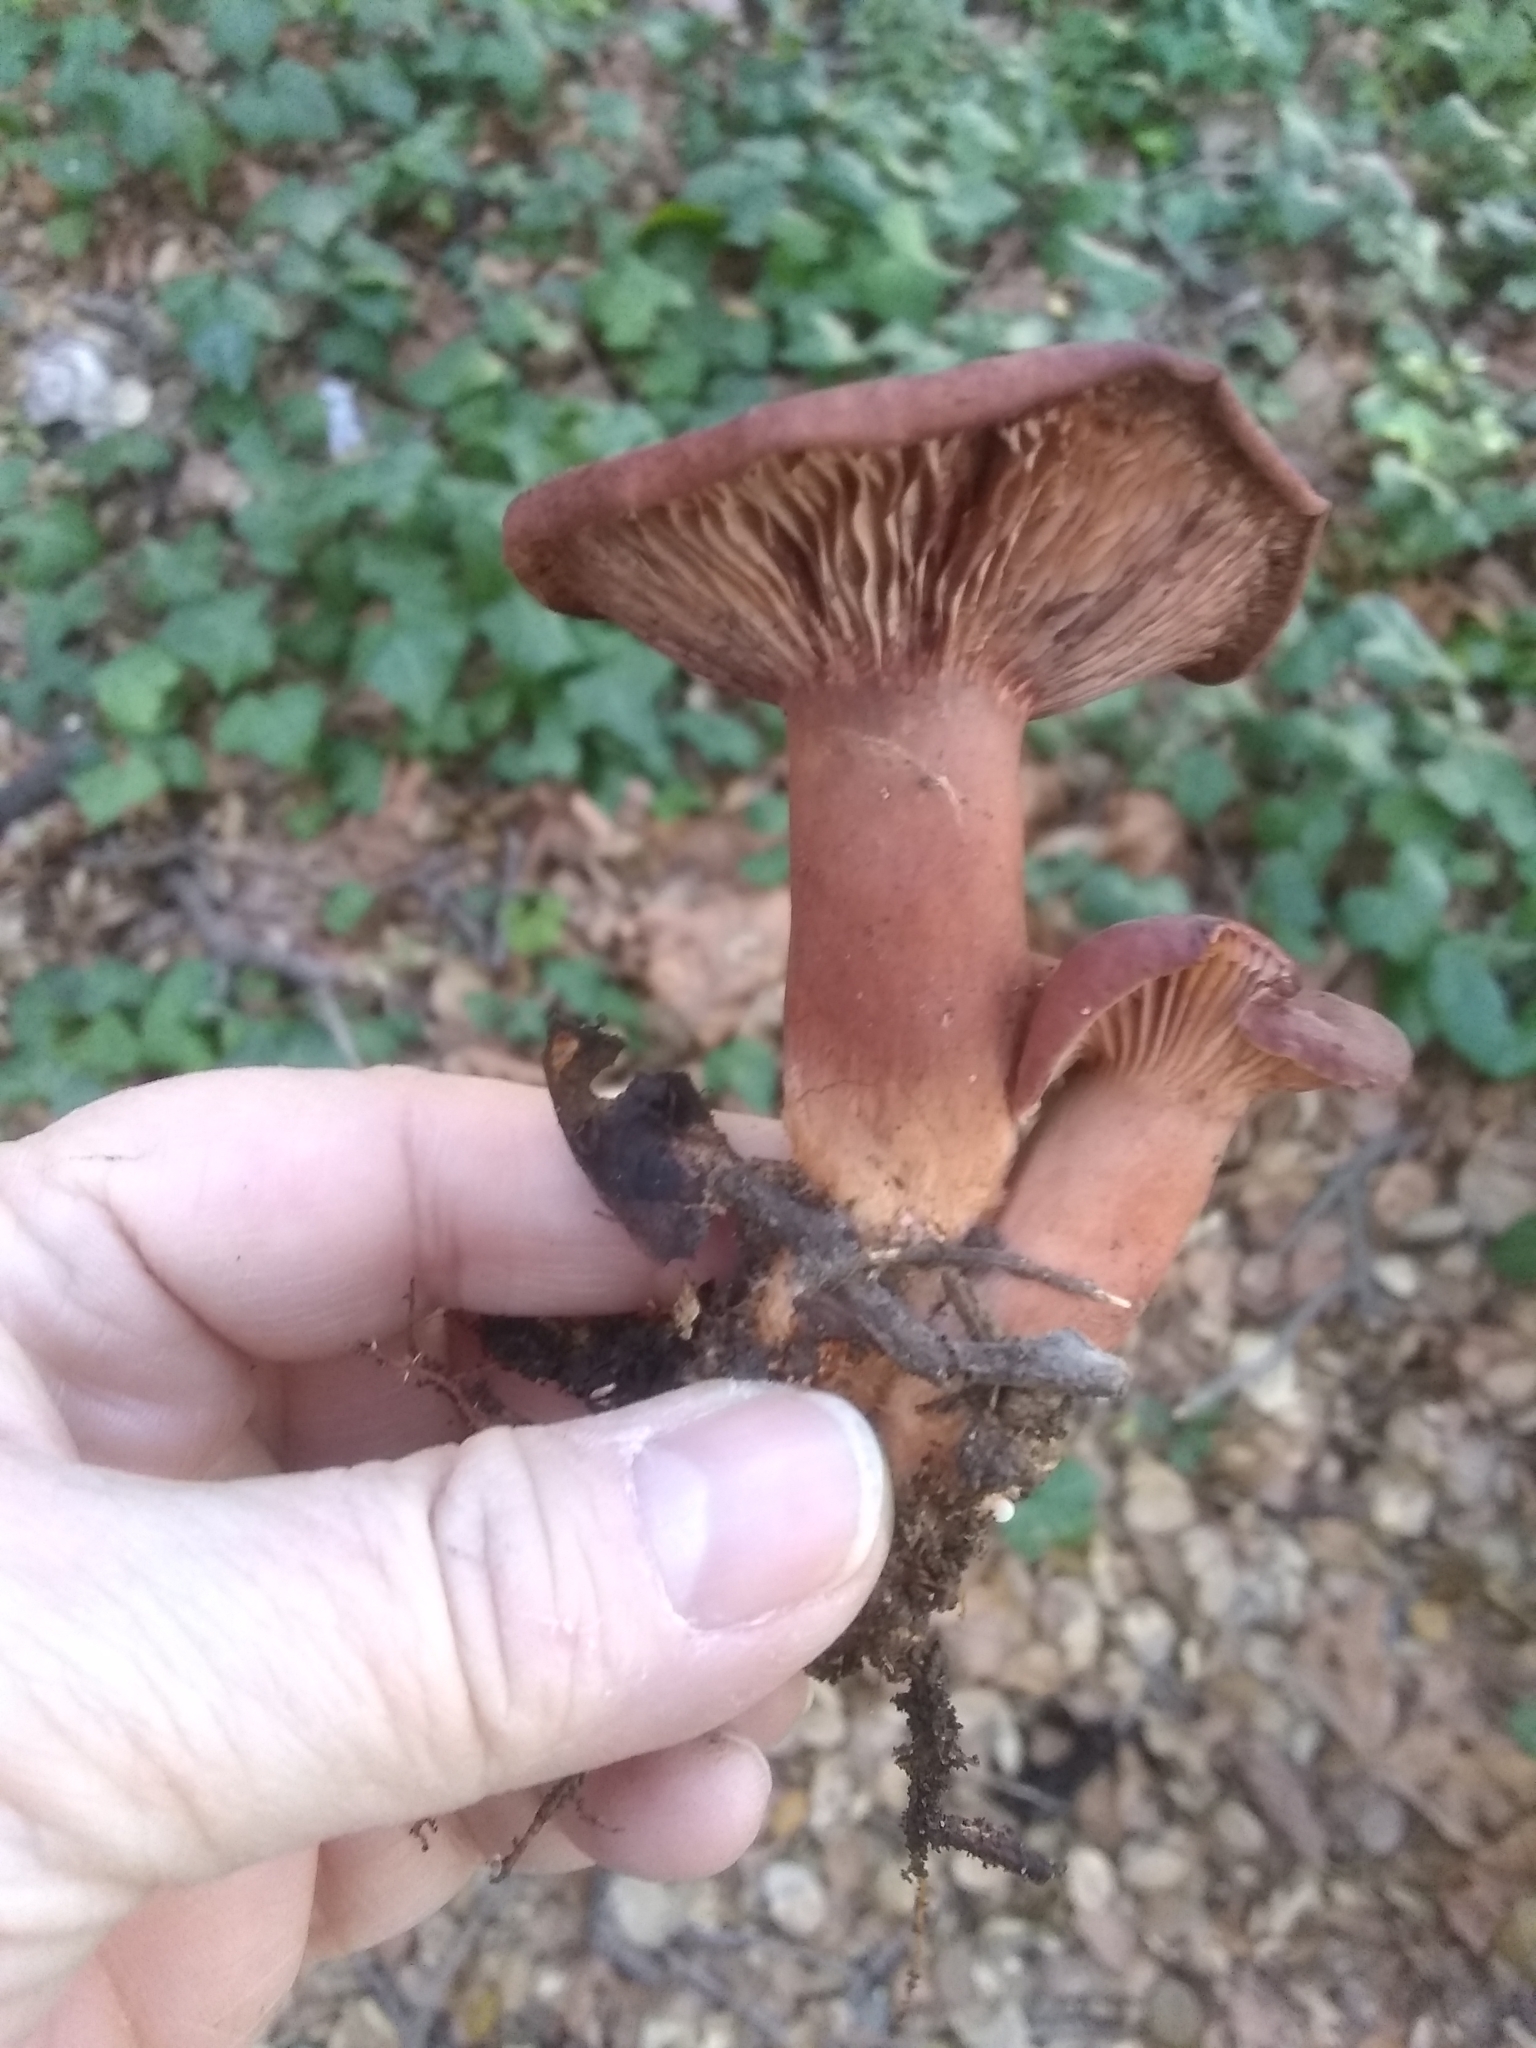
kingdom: Fungi
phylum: Basidiomycota
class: Agaricomycetes
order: Russulales
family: Russulaceae
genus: Lactarius
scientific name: Lactarius rufulus
